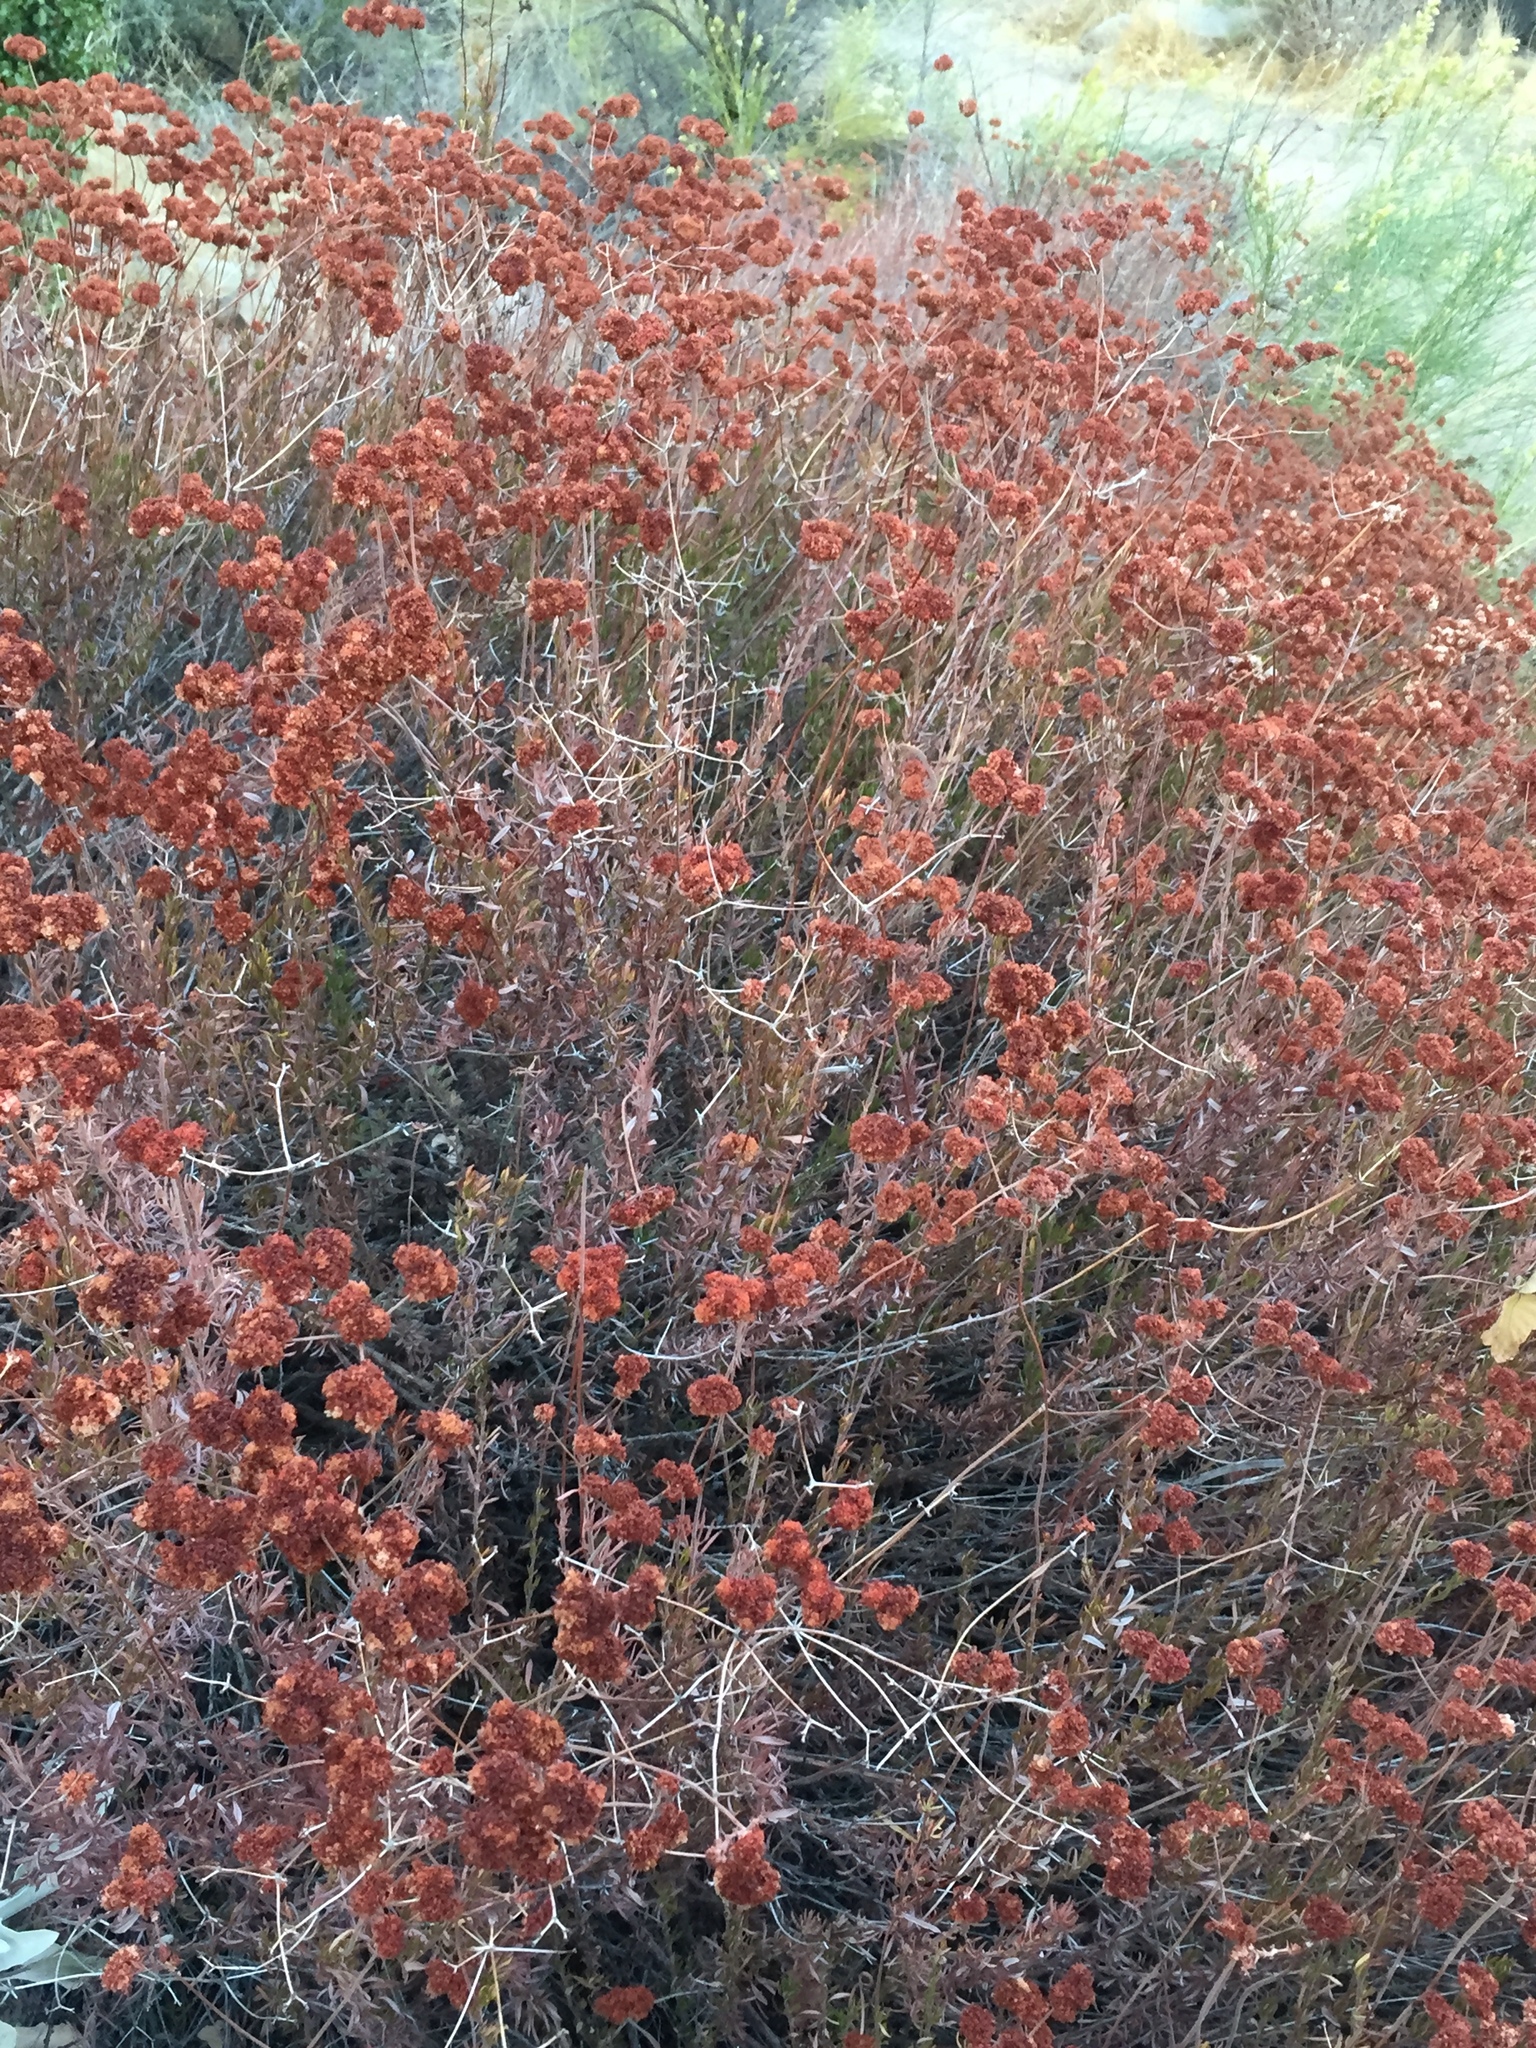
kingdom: Plantae
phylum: Tracheophyta
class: Magnoliopsida
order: Caryophyllales
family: Polygonaceae
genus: Eriogonum
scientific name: Eriogonum fasciculatum
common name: California wild buckwheat
